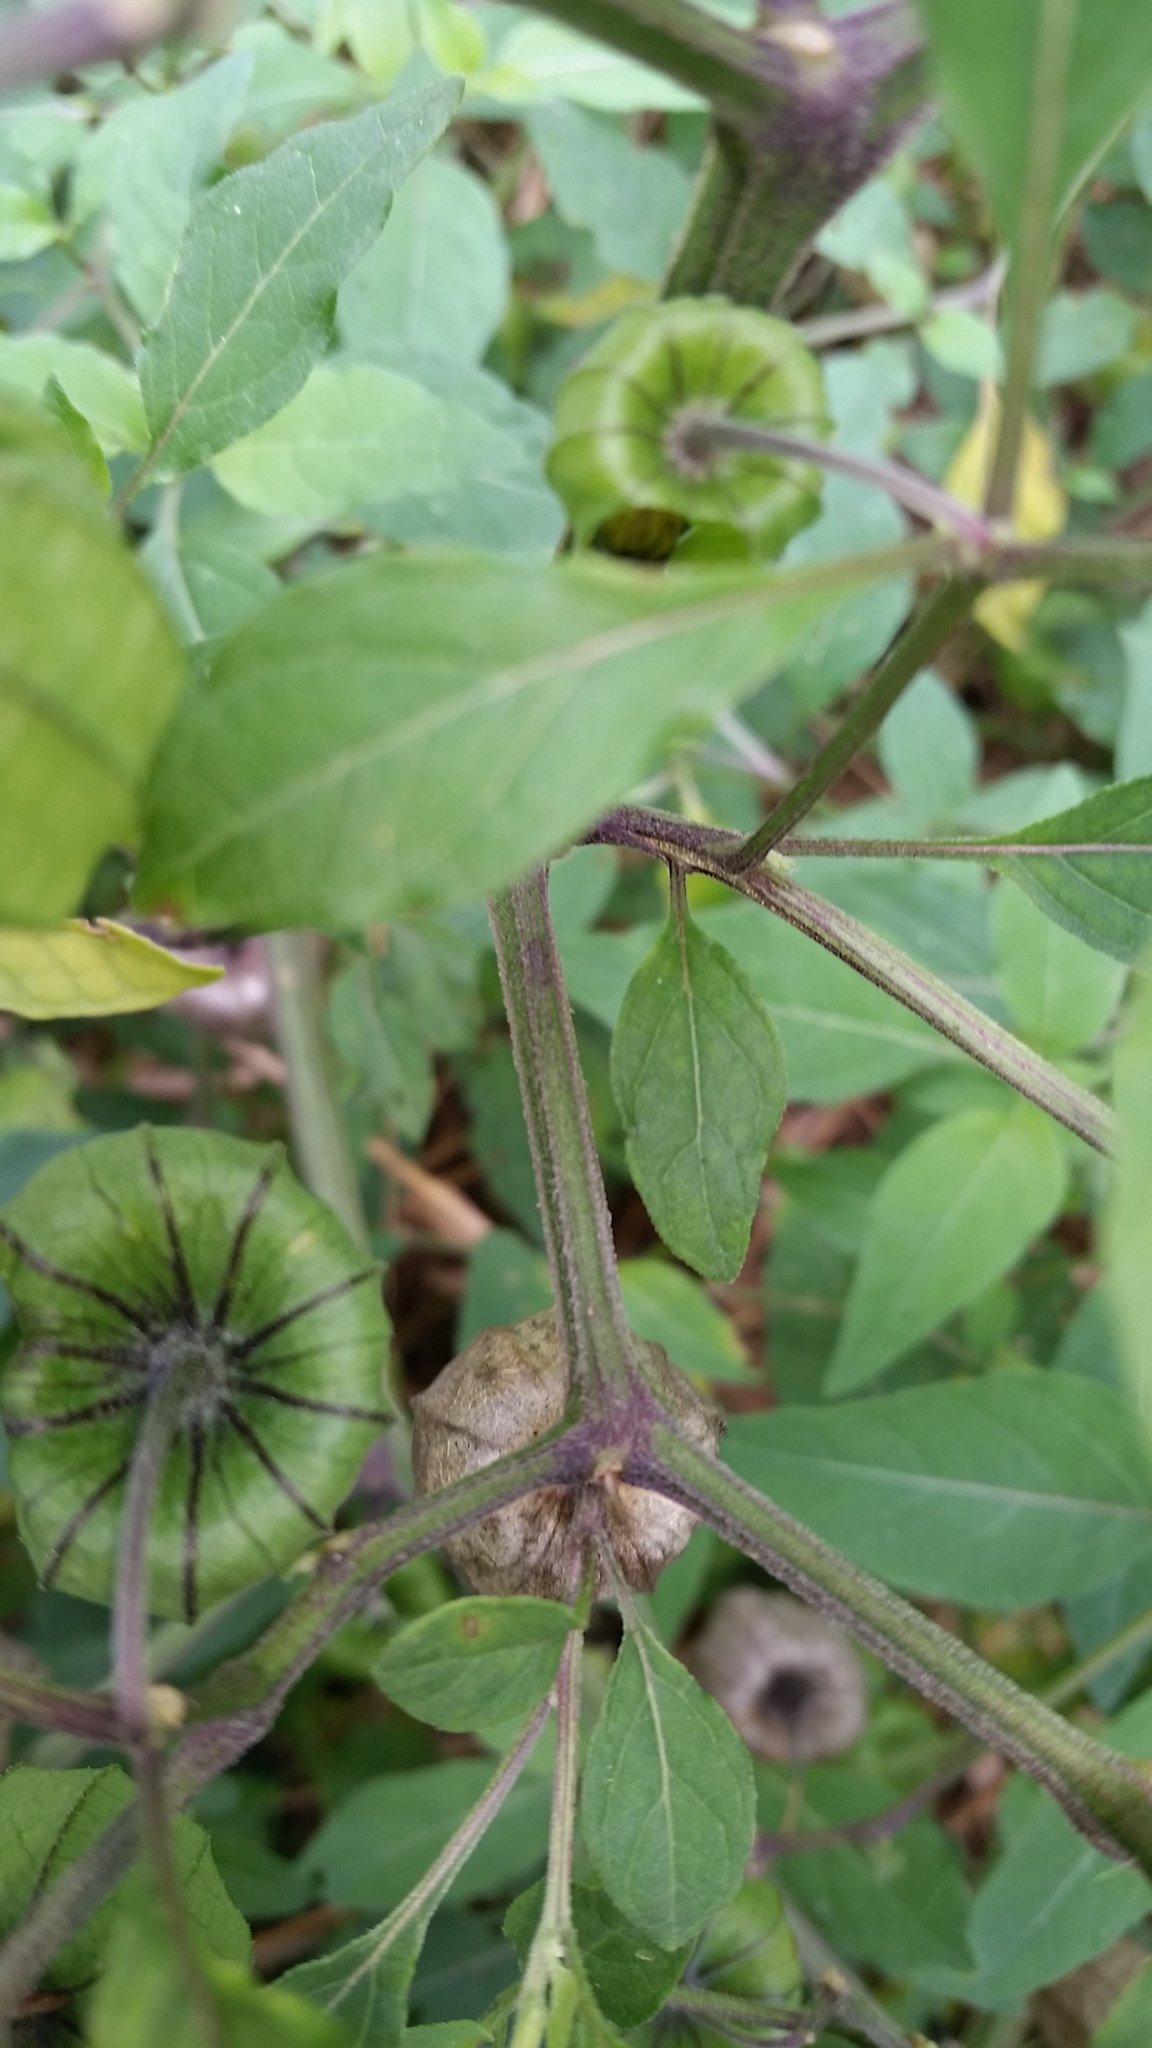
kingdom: Plantae
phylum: Tracheophyta
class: Magnoliopsida
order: Solanales
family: Solanaceae
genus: Physalis
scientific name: Physalis longifolia
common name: Common ground-cherry
